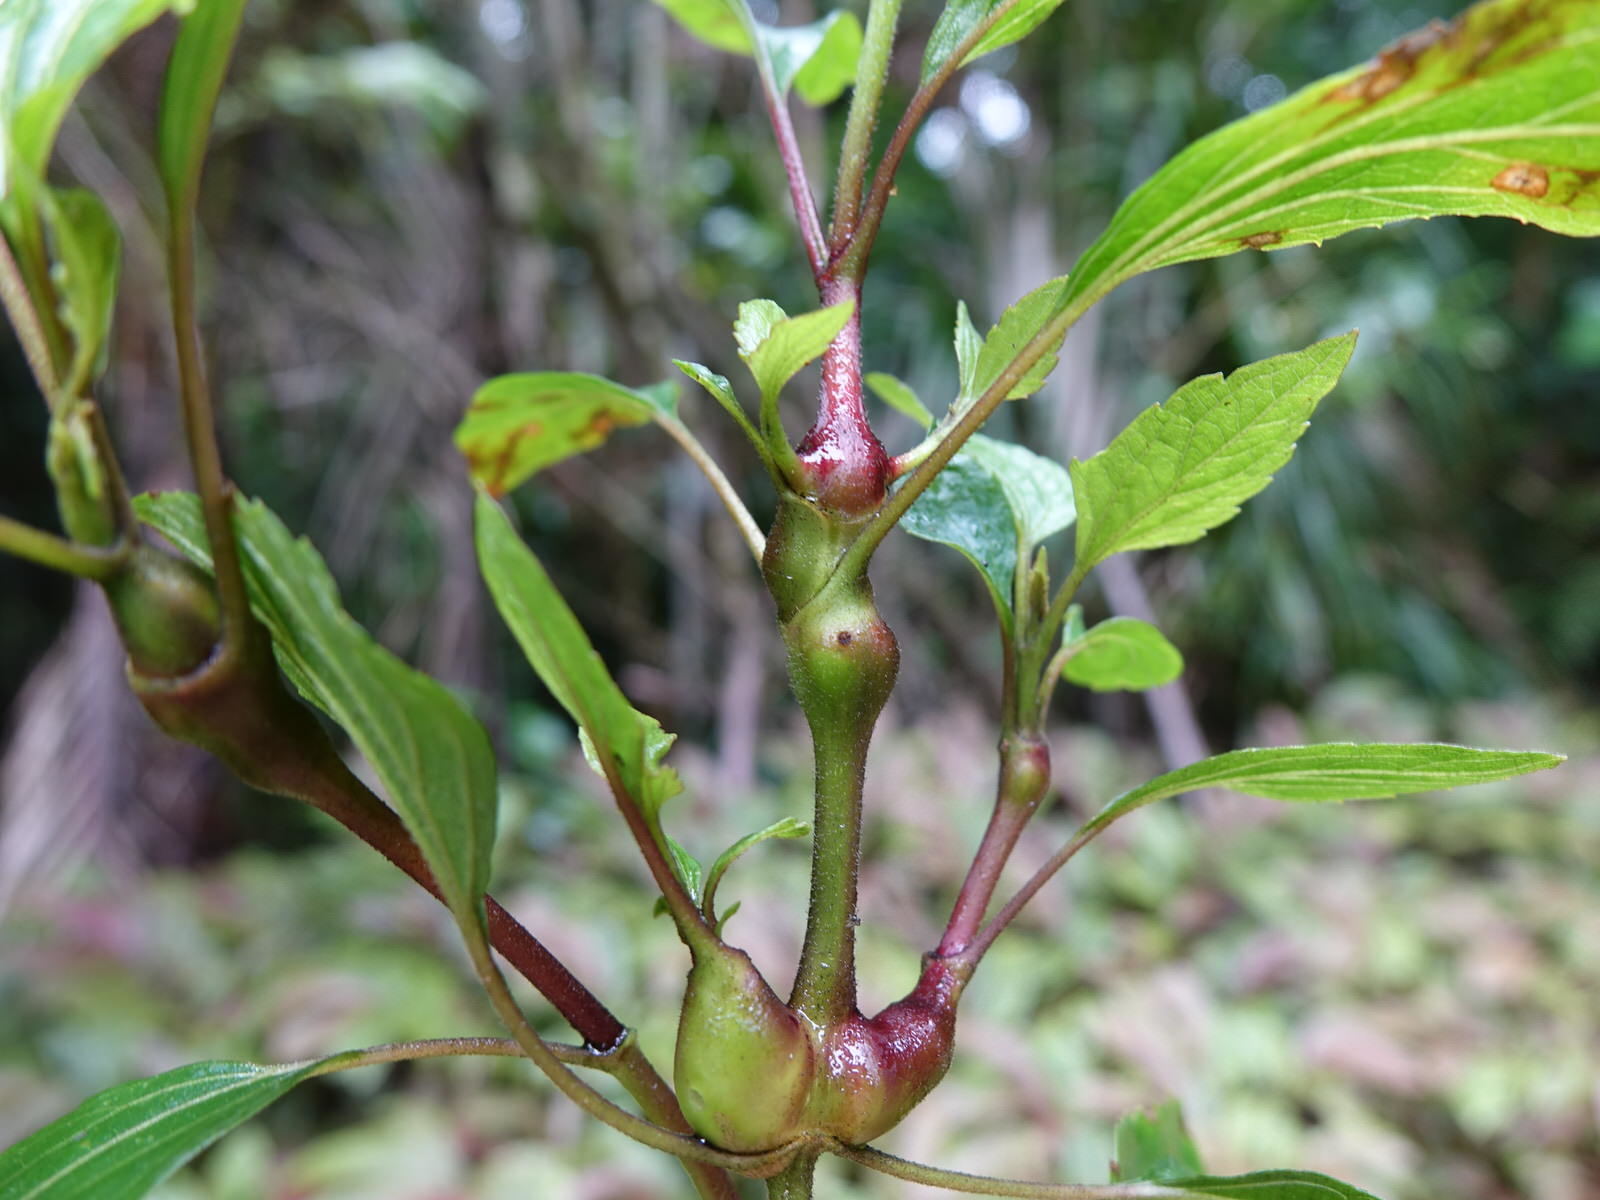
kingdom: Animalia
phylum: Arthropoda
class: Insecta
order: Diptera
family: Tephritidae
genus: Procecidochares
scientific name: Procecidochares utilis
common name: Eupatorium gall fly
